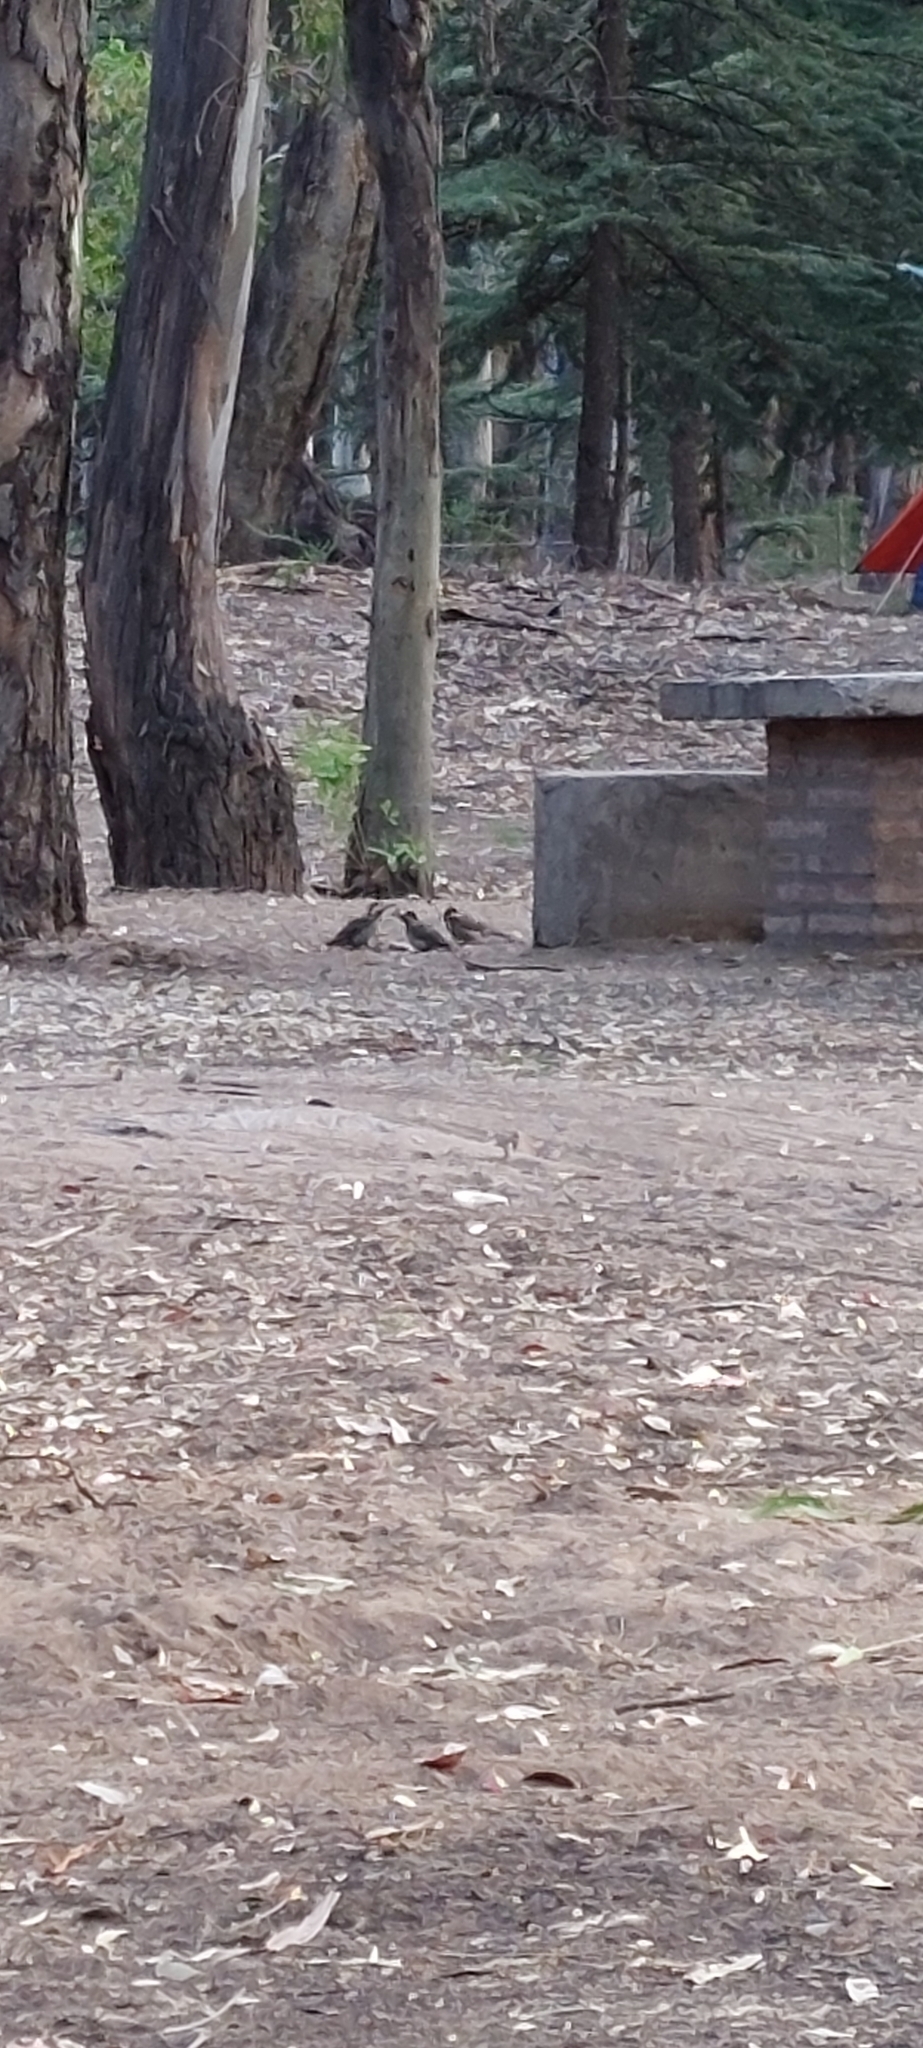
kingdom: Animalia
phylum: Chordata
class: Aves
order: Piciformes
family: Picidae
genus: Colaptes
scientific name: Colaptes melanochloros
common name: Green-barred woodpecker
